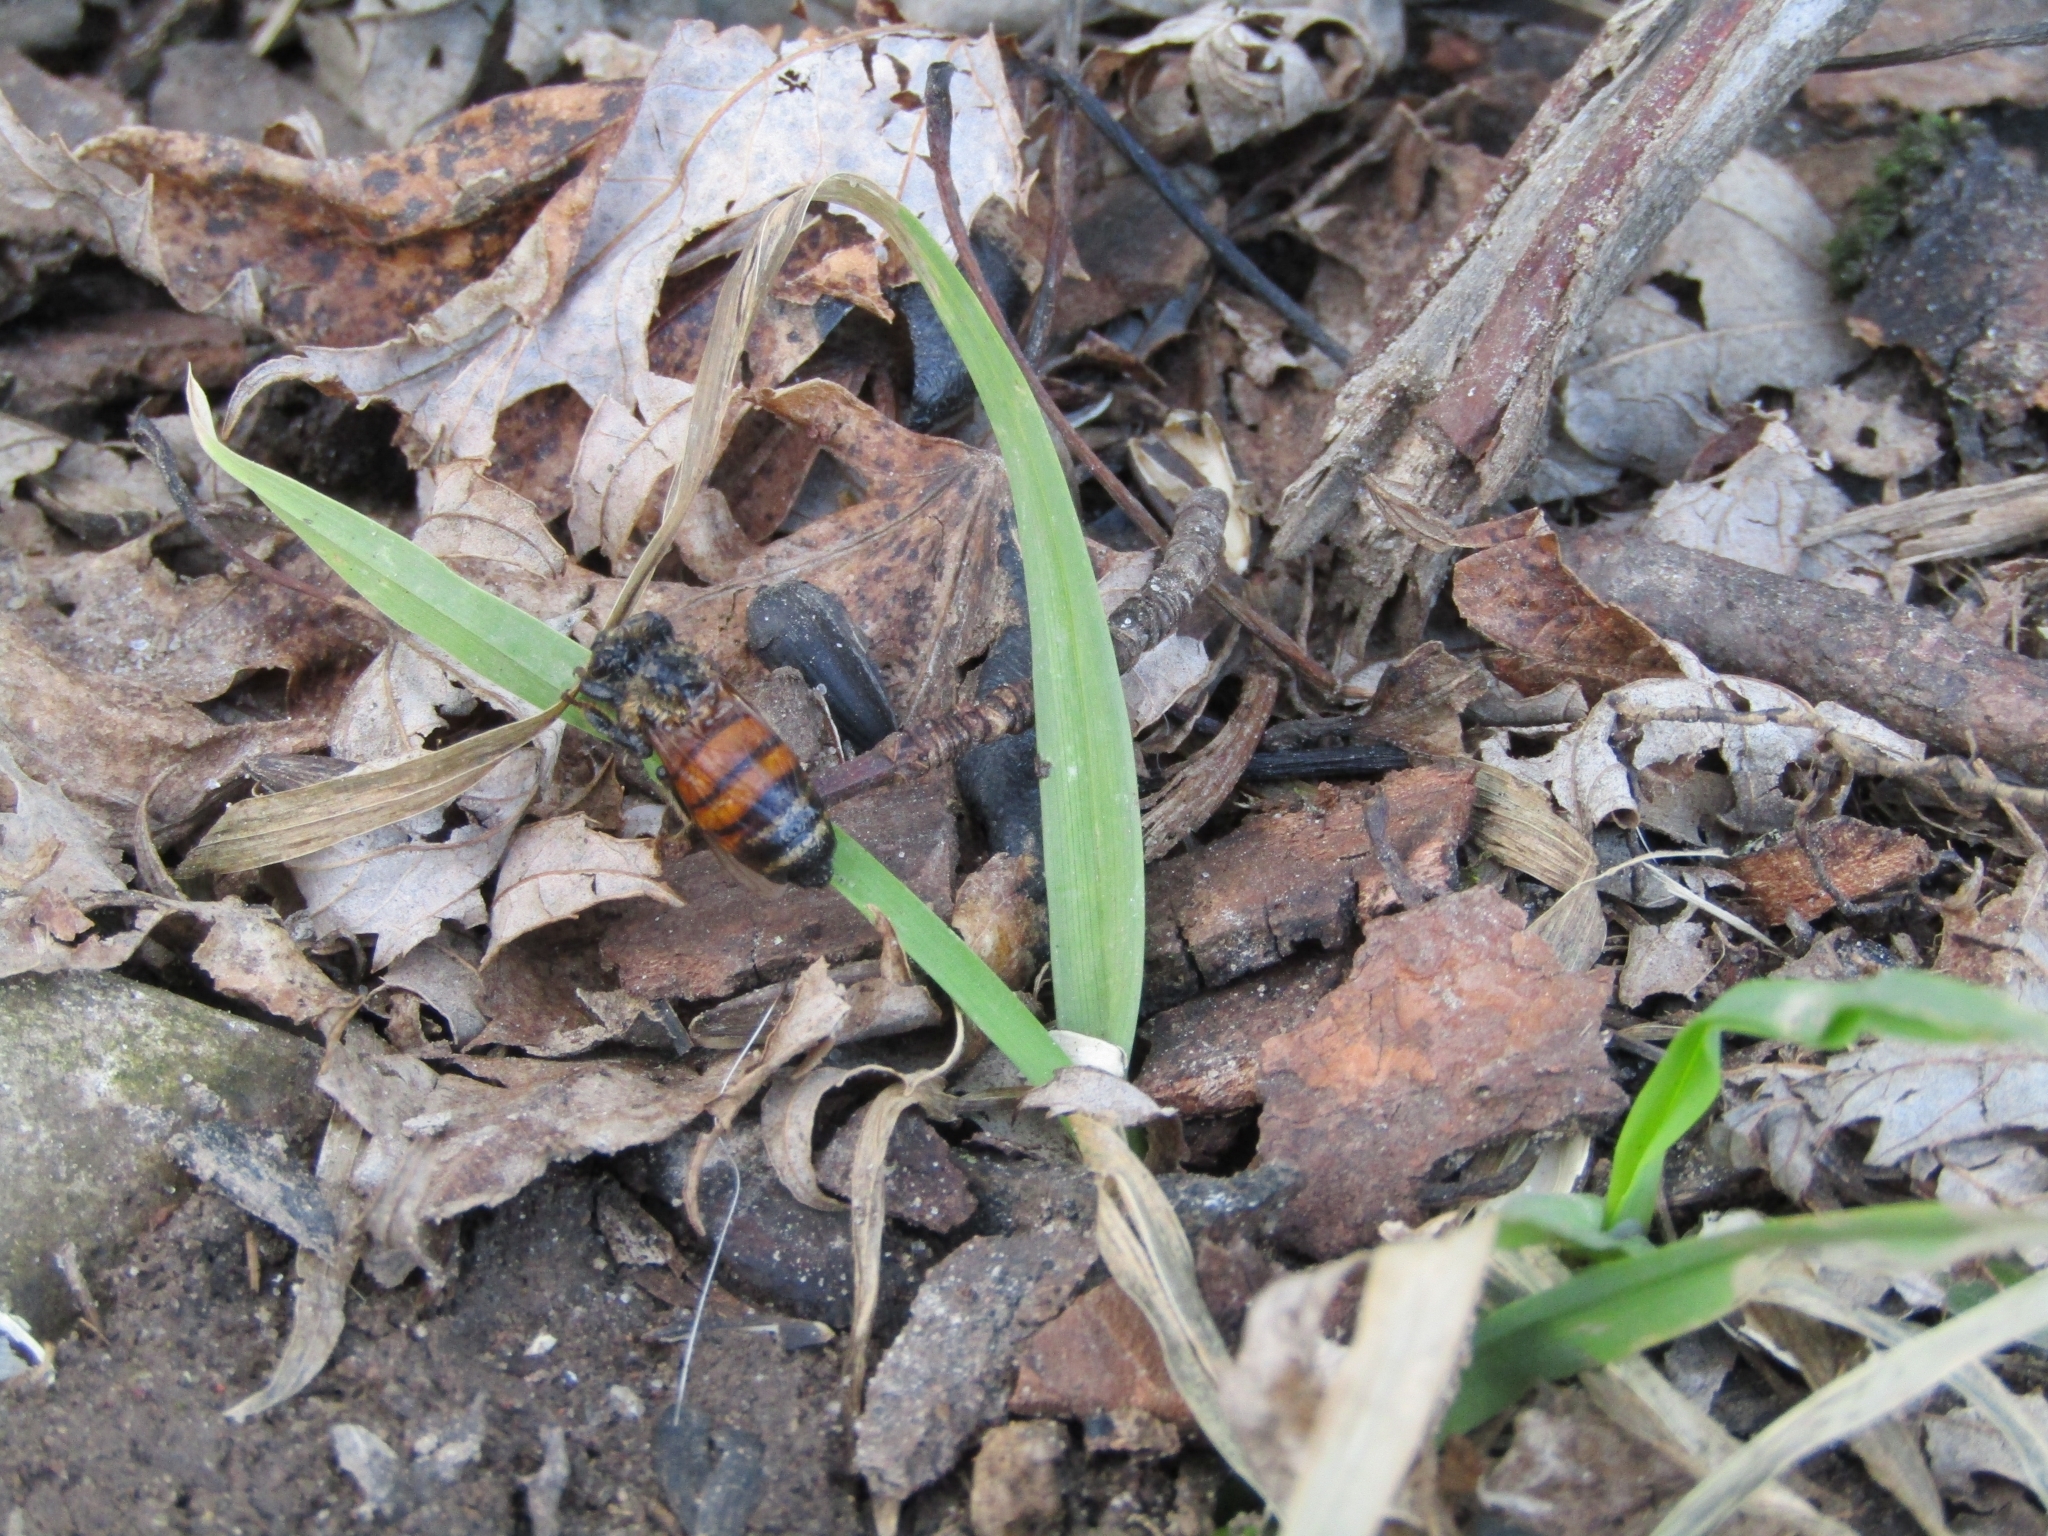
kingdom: Animalia
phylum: Arthropoda
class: Insecta
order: Hymenoptera
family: Apidae
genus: Apis
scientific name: Apis mellifera
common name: Honey bee
